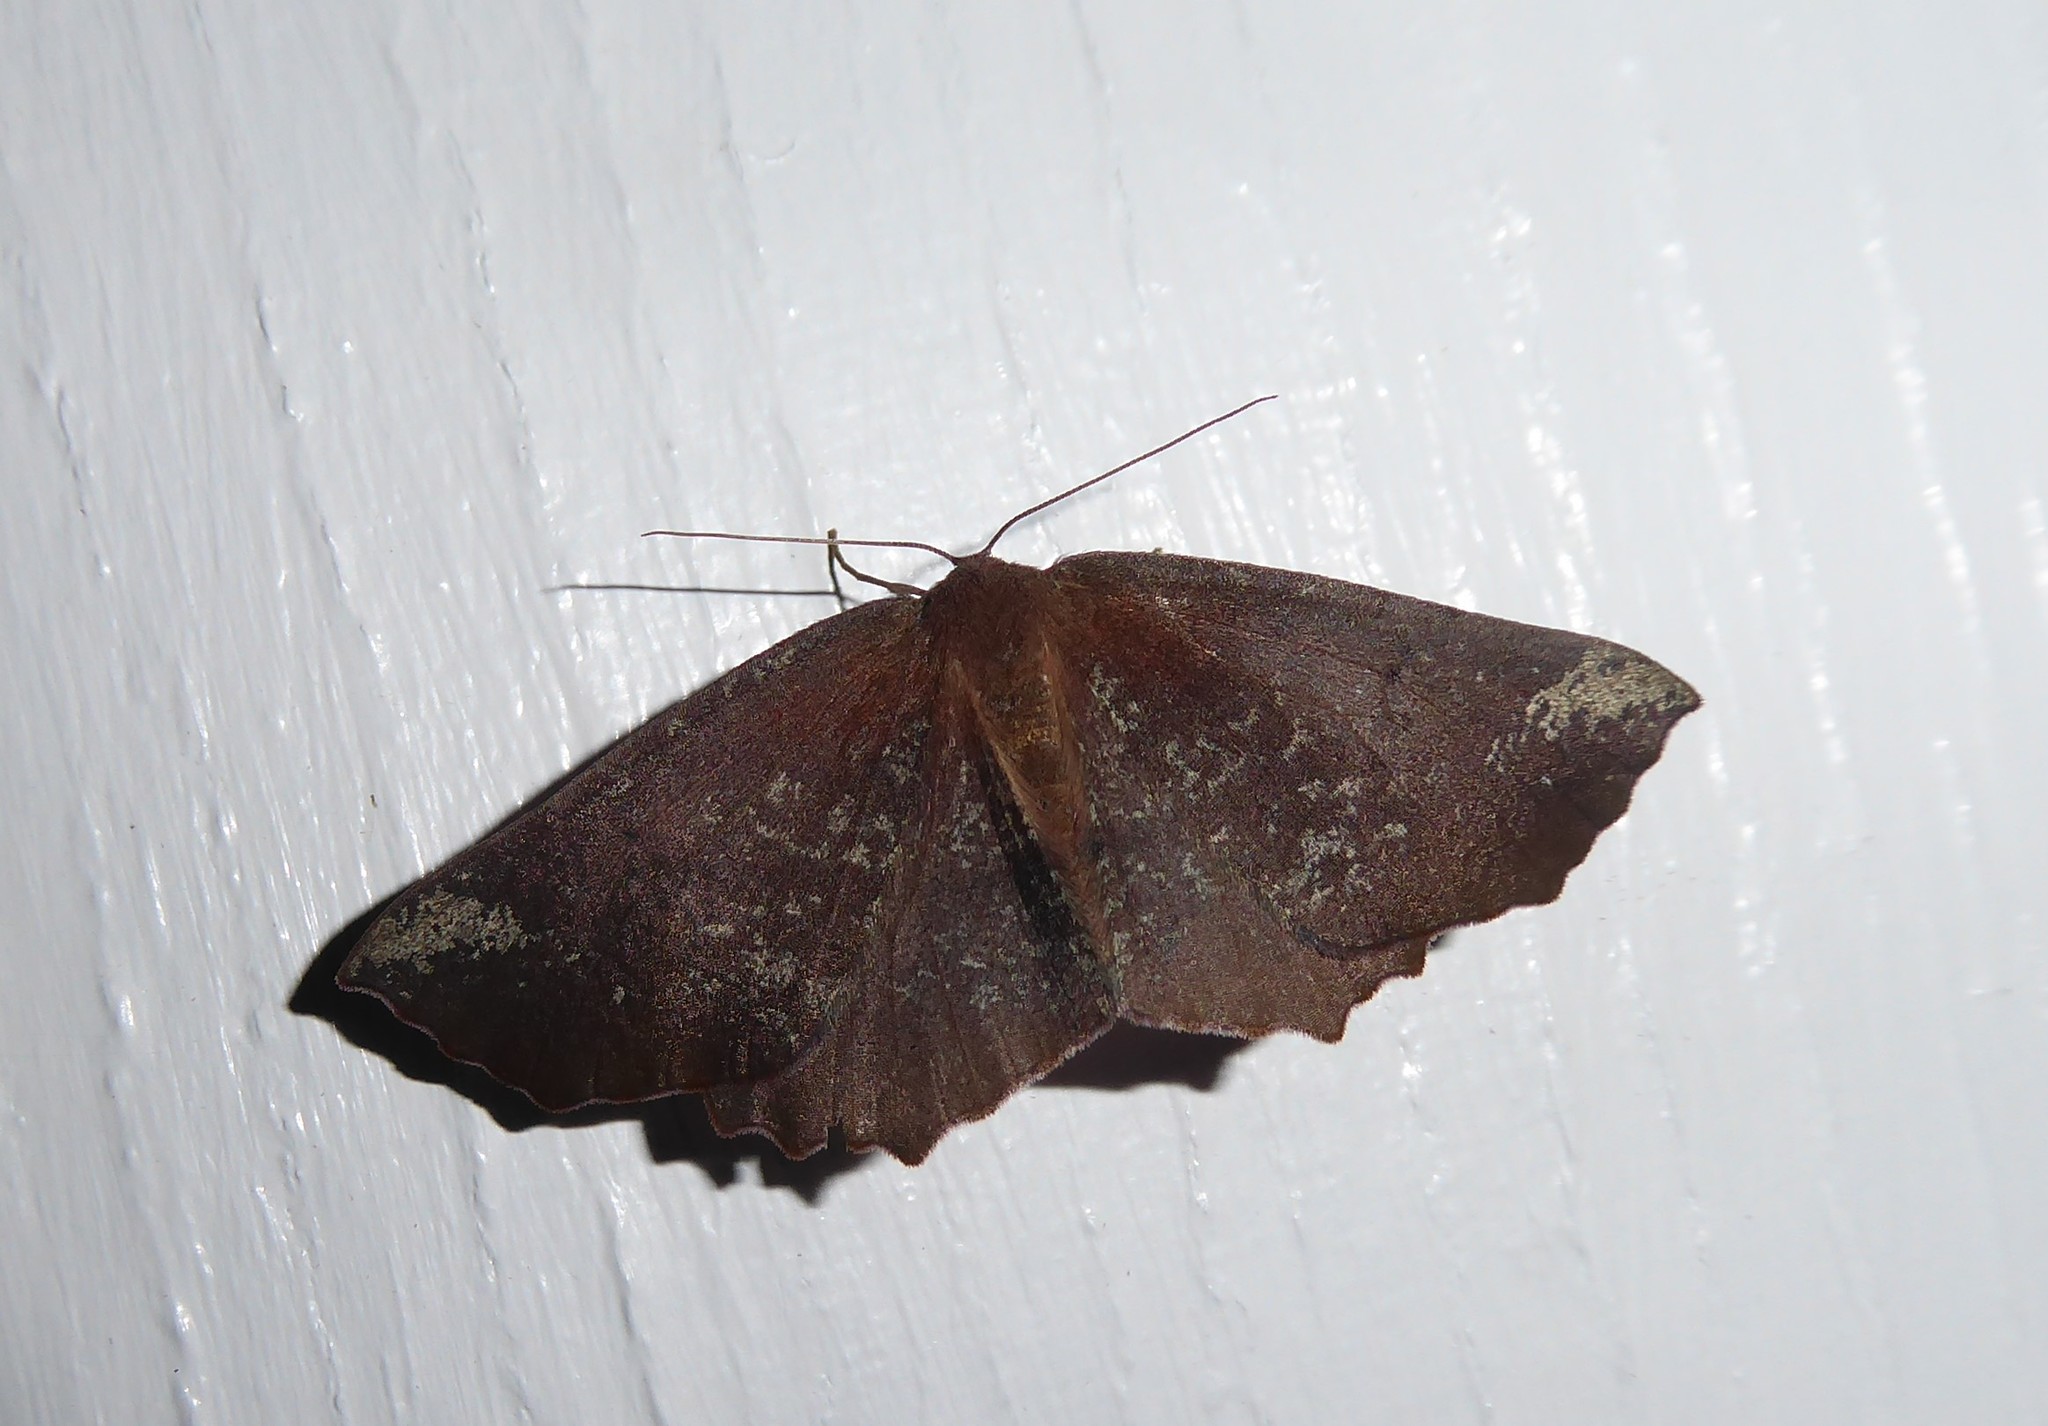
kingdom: Animalia
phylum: Arthropoda
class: Insecta
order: Lepidoptera
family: Geometridae
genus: Xyridacma
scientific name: Xyridacma ustaria
